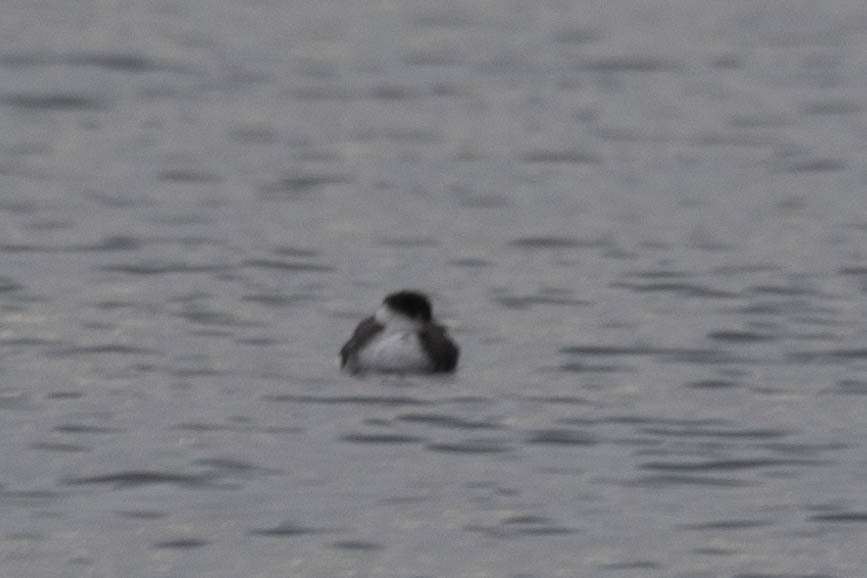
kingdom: Animalia
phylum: Chordata
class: Aves
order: Podicipediformes
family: Podicipedidae
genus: Podiceps
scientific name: Podiceps auritus
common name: Horned grebe
